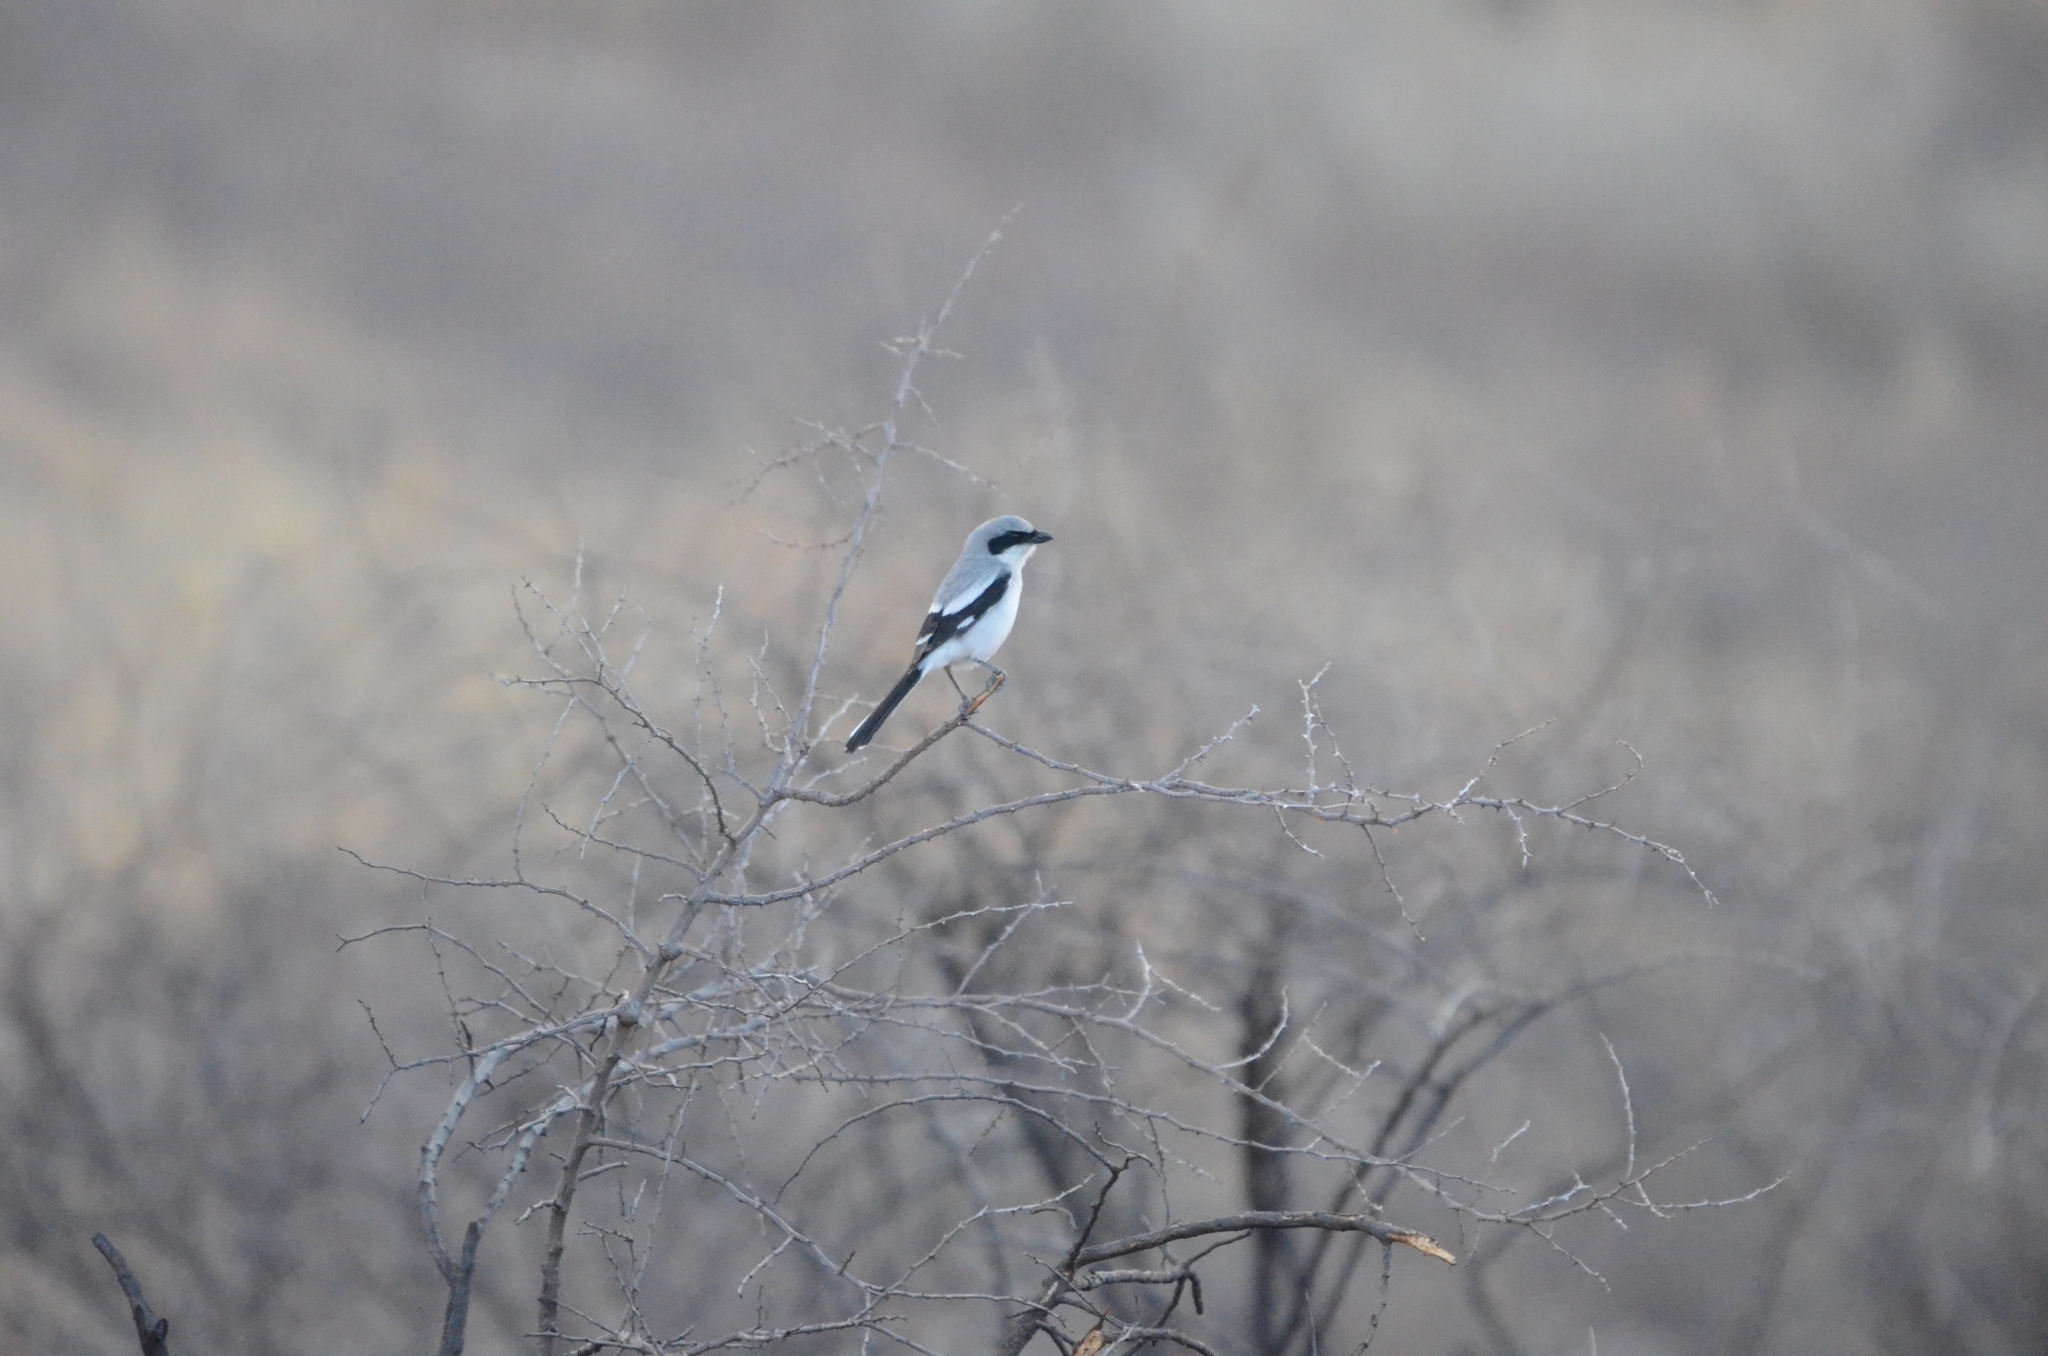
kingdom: Animalia
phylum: Chordata
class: Aves
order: Passeriformes
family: Laniidae
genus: Lanius
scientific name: Lanius ludovicianus
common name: Loggerhead shrike
